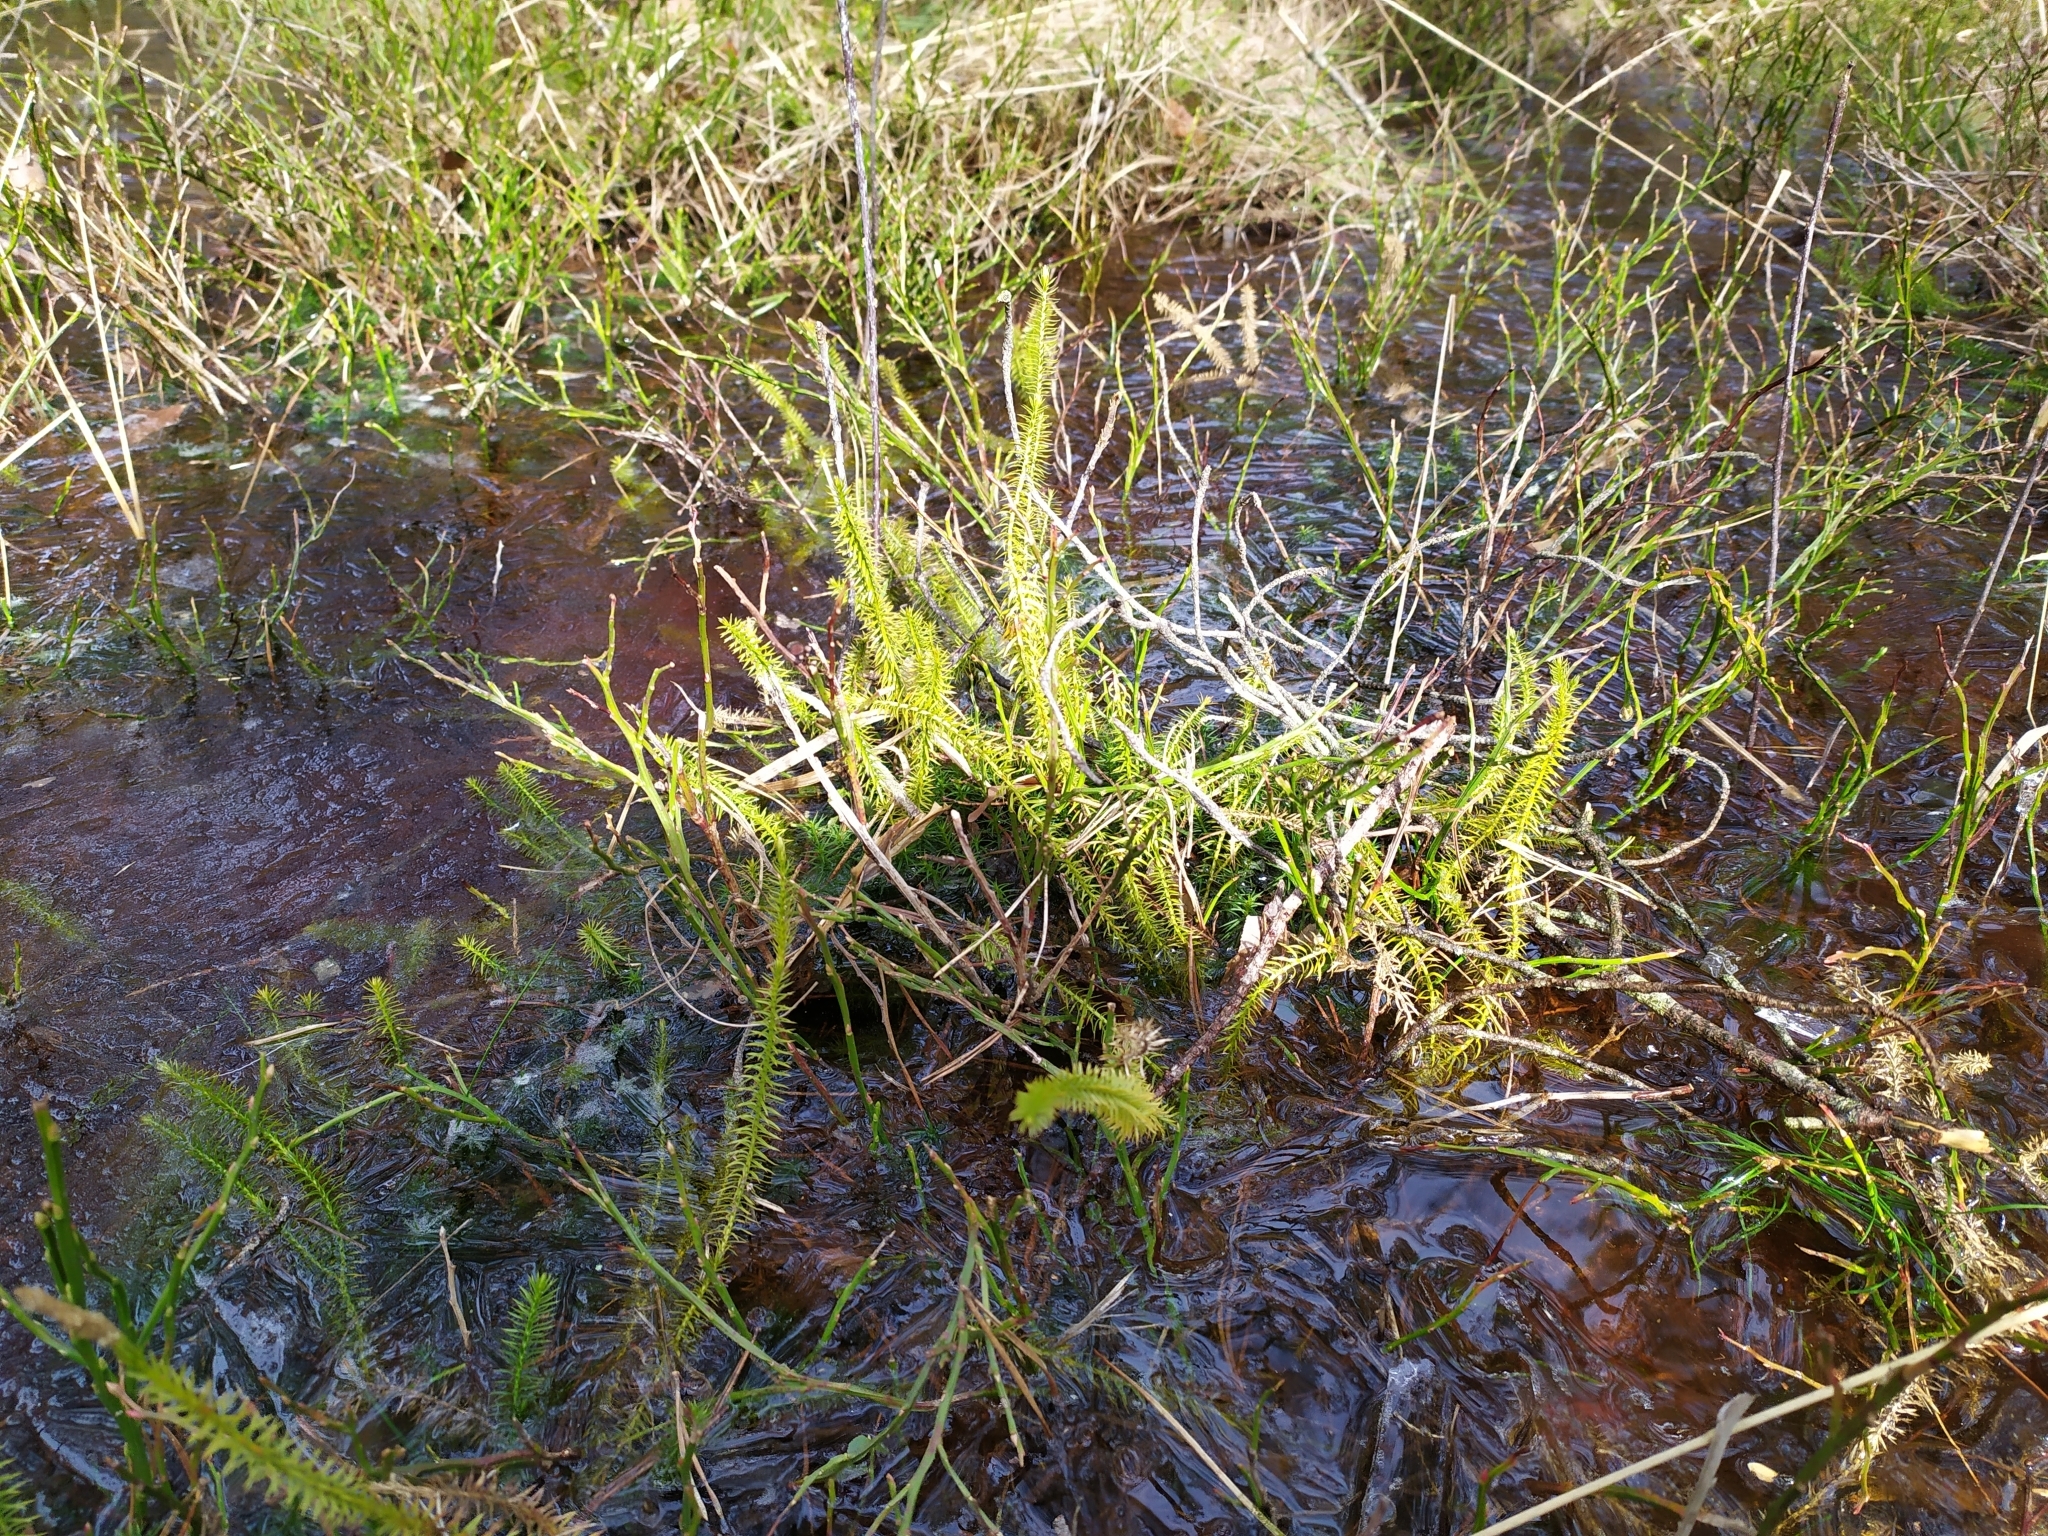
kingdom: Plantae
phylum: Tracheophyta
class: Lycopodiopsida
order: Lycopodiales
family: Lycopodiaceae
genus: Spinulum
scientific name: Spinulum annotinum
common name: Interrupted club-moss
